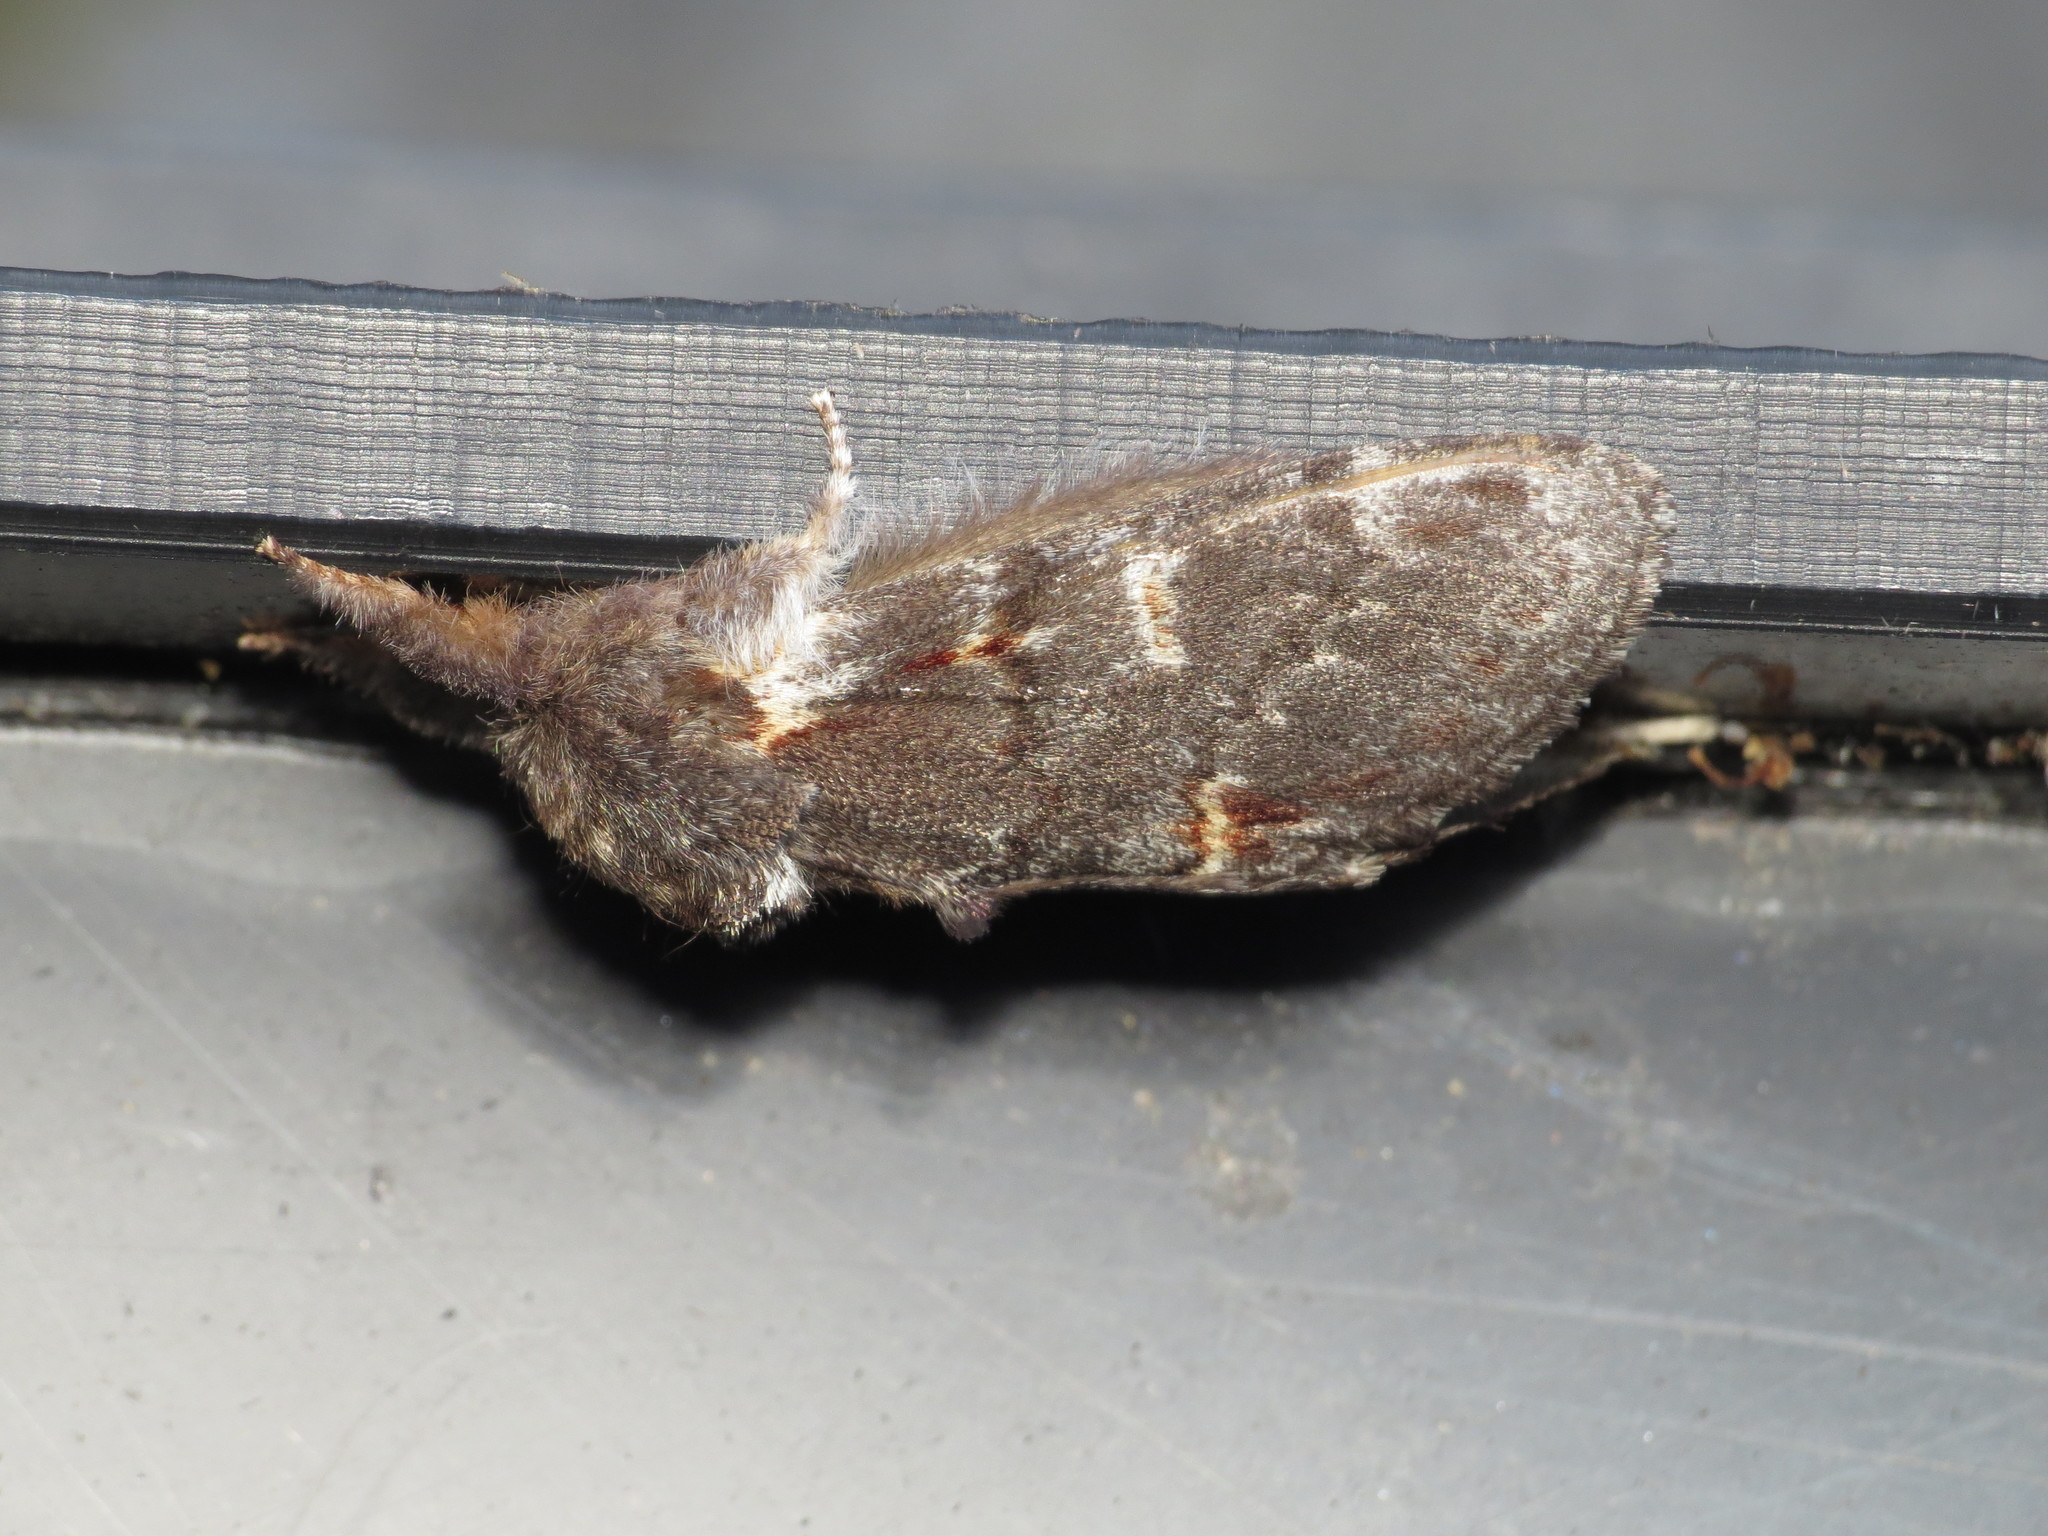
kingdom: Animalia
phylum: Arthropoda
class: Insecta
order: Lepidoptera
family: Notodontidae
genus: Notodonta
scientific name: Notodonta dromedarius
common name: Iron prominent
